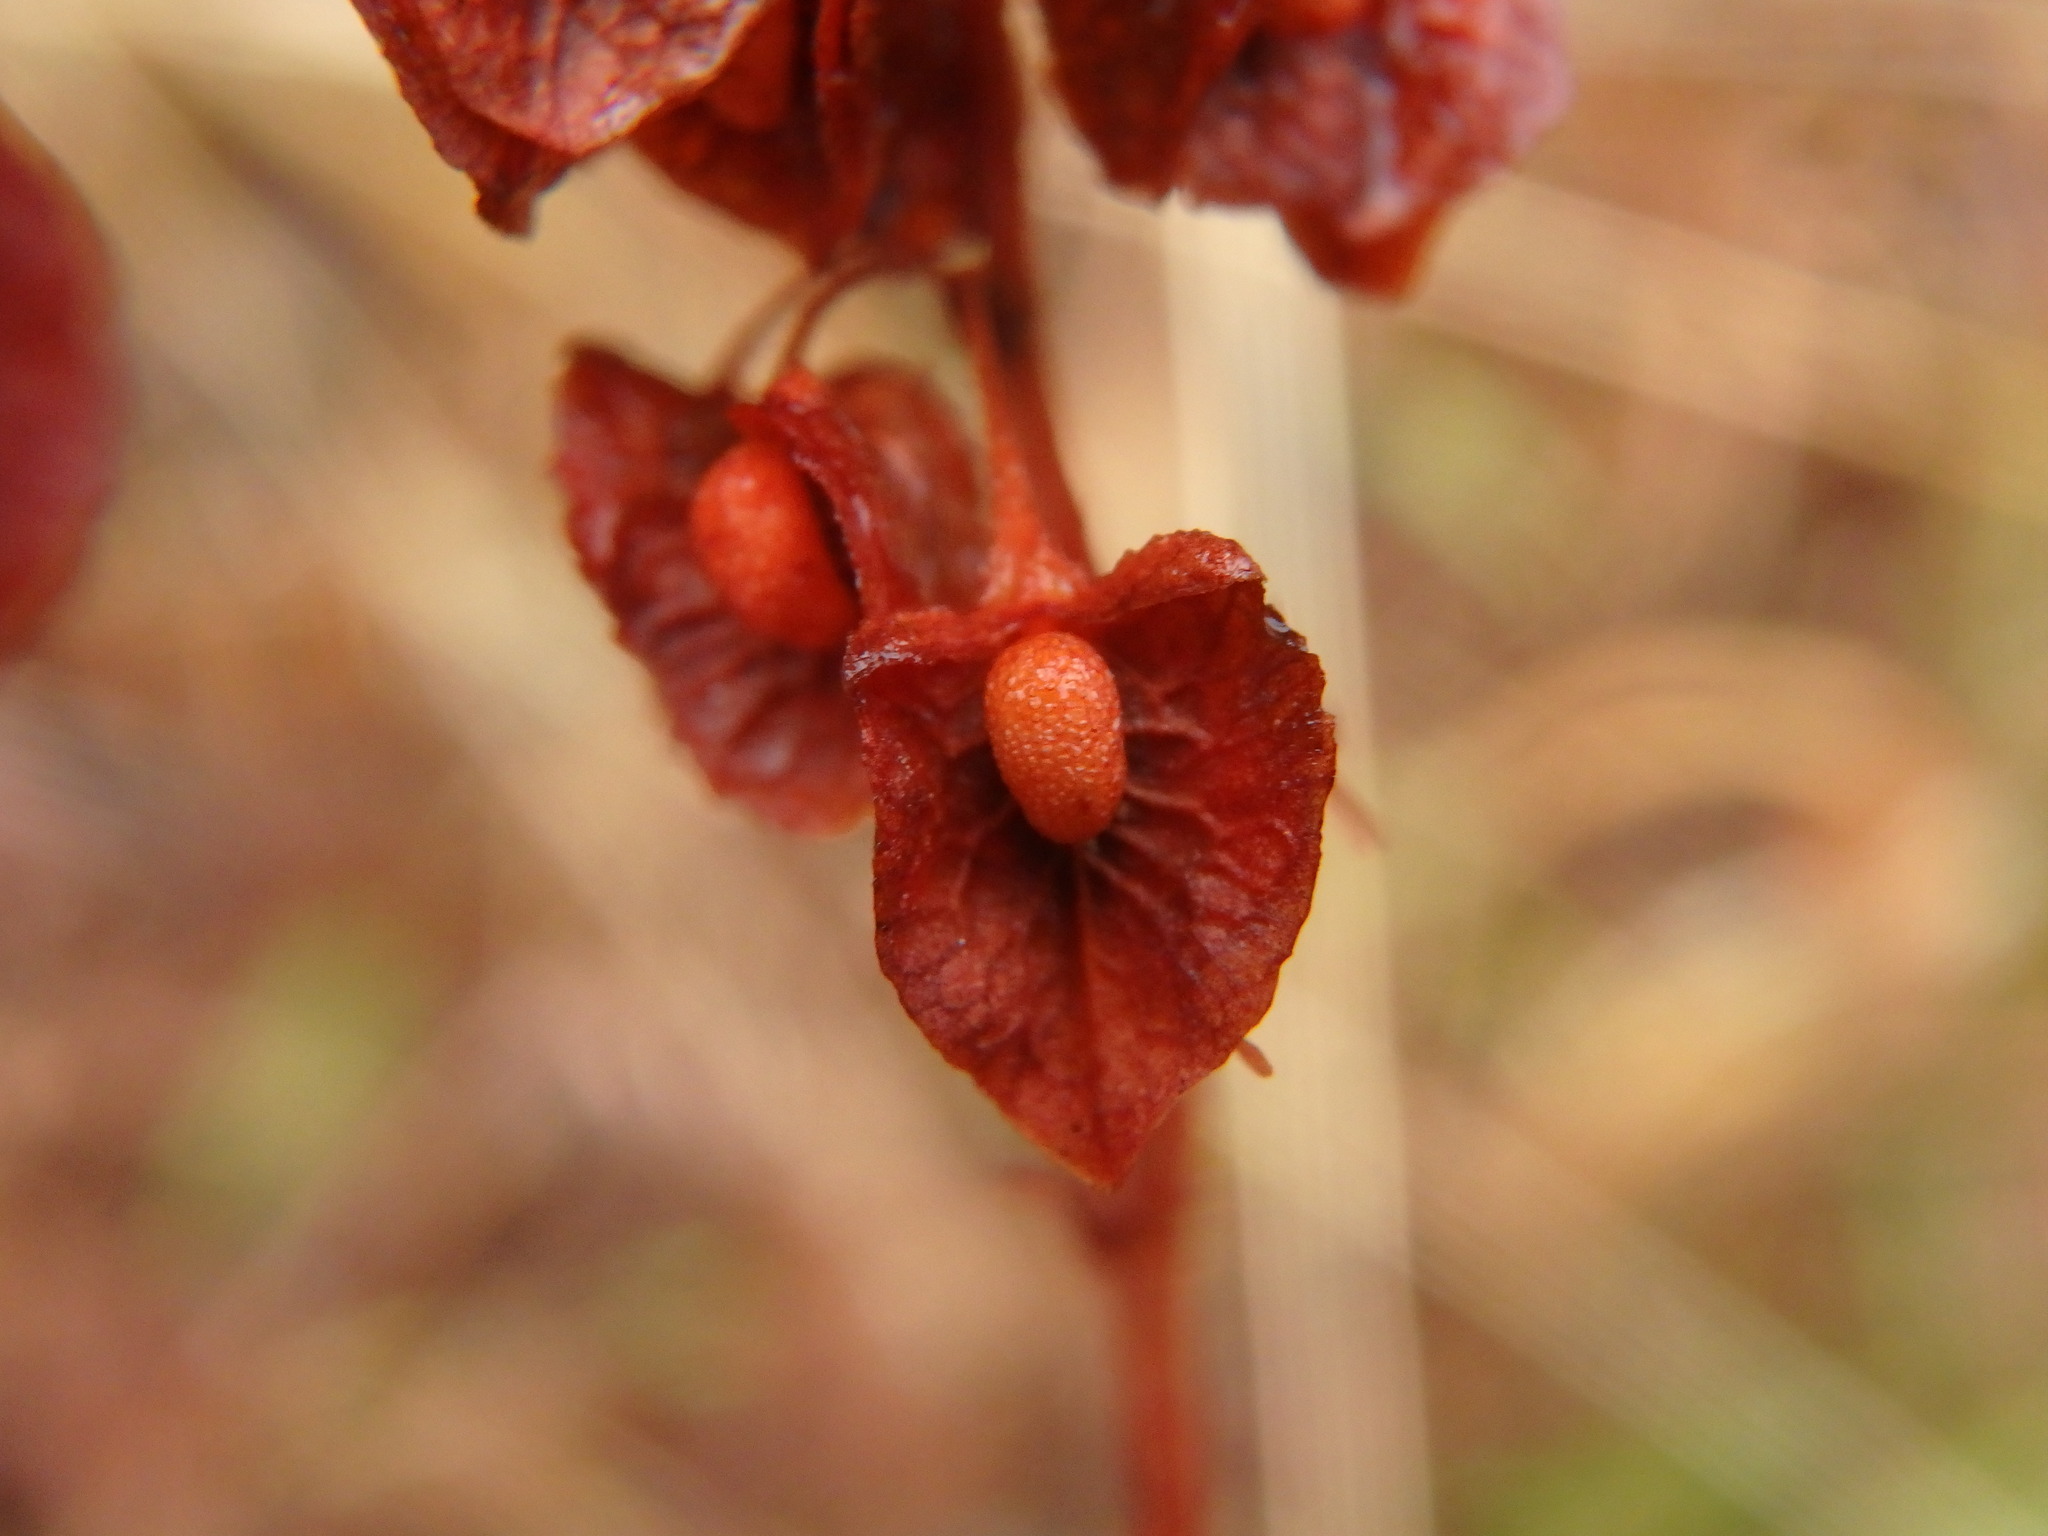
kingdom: Plantae
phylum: Tracheophyta
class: Magnoliopsida
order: Caryophyllales
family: Polygonaceae
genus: Rumex
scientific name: Rumex crispus
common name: Curled dock
